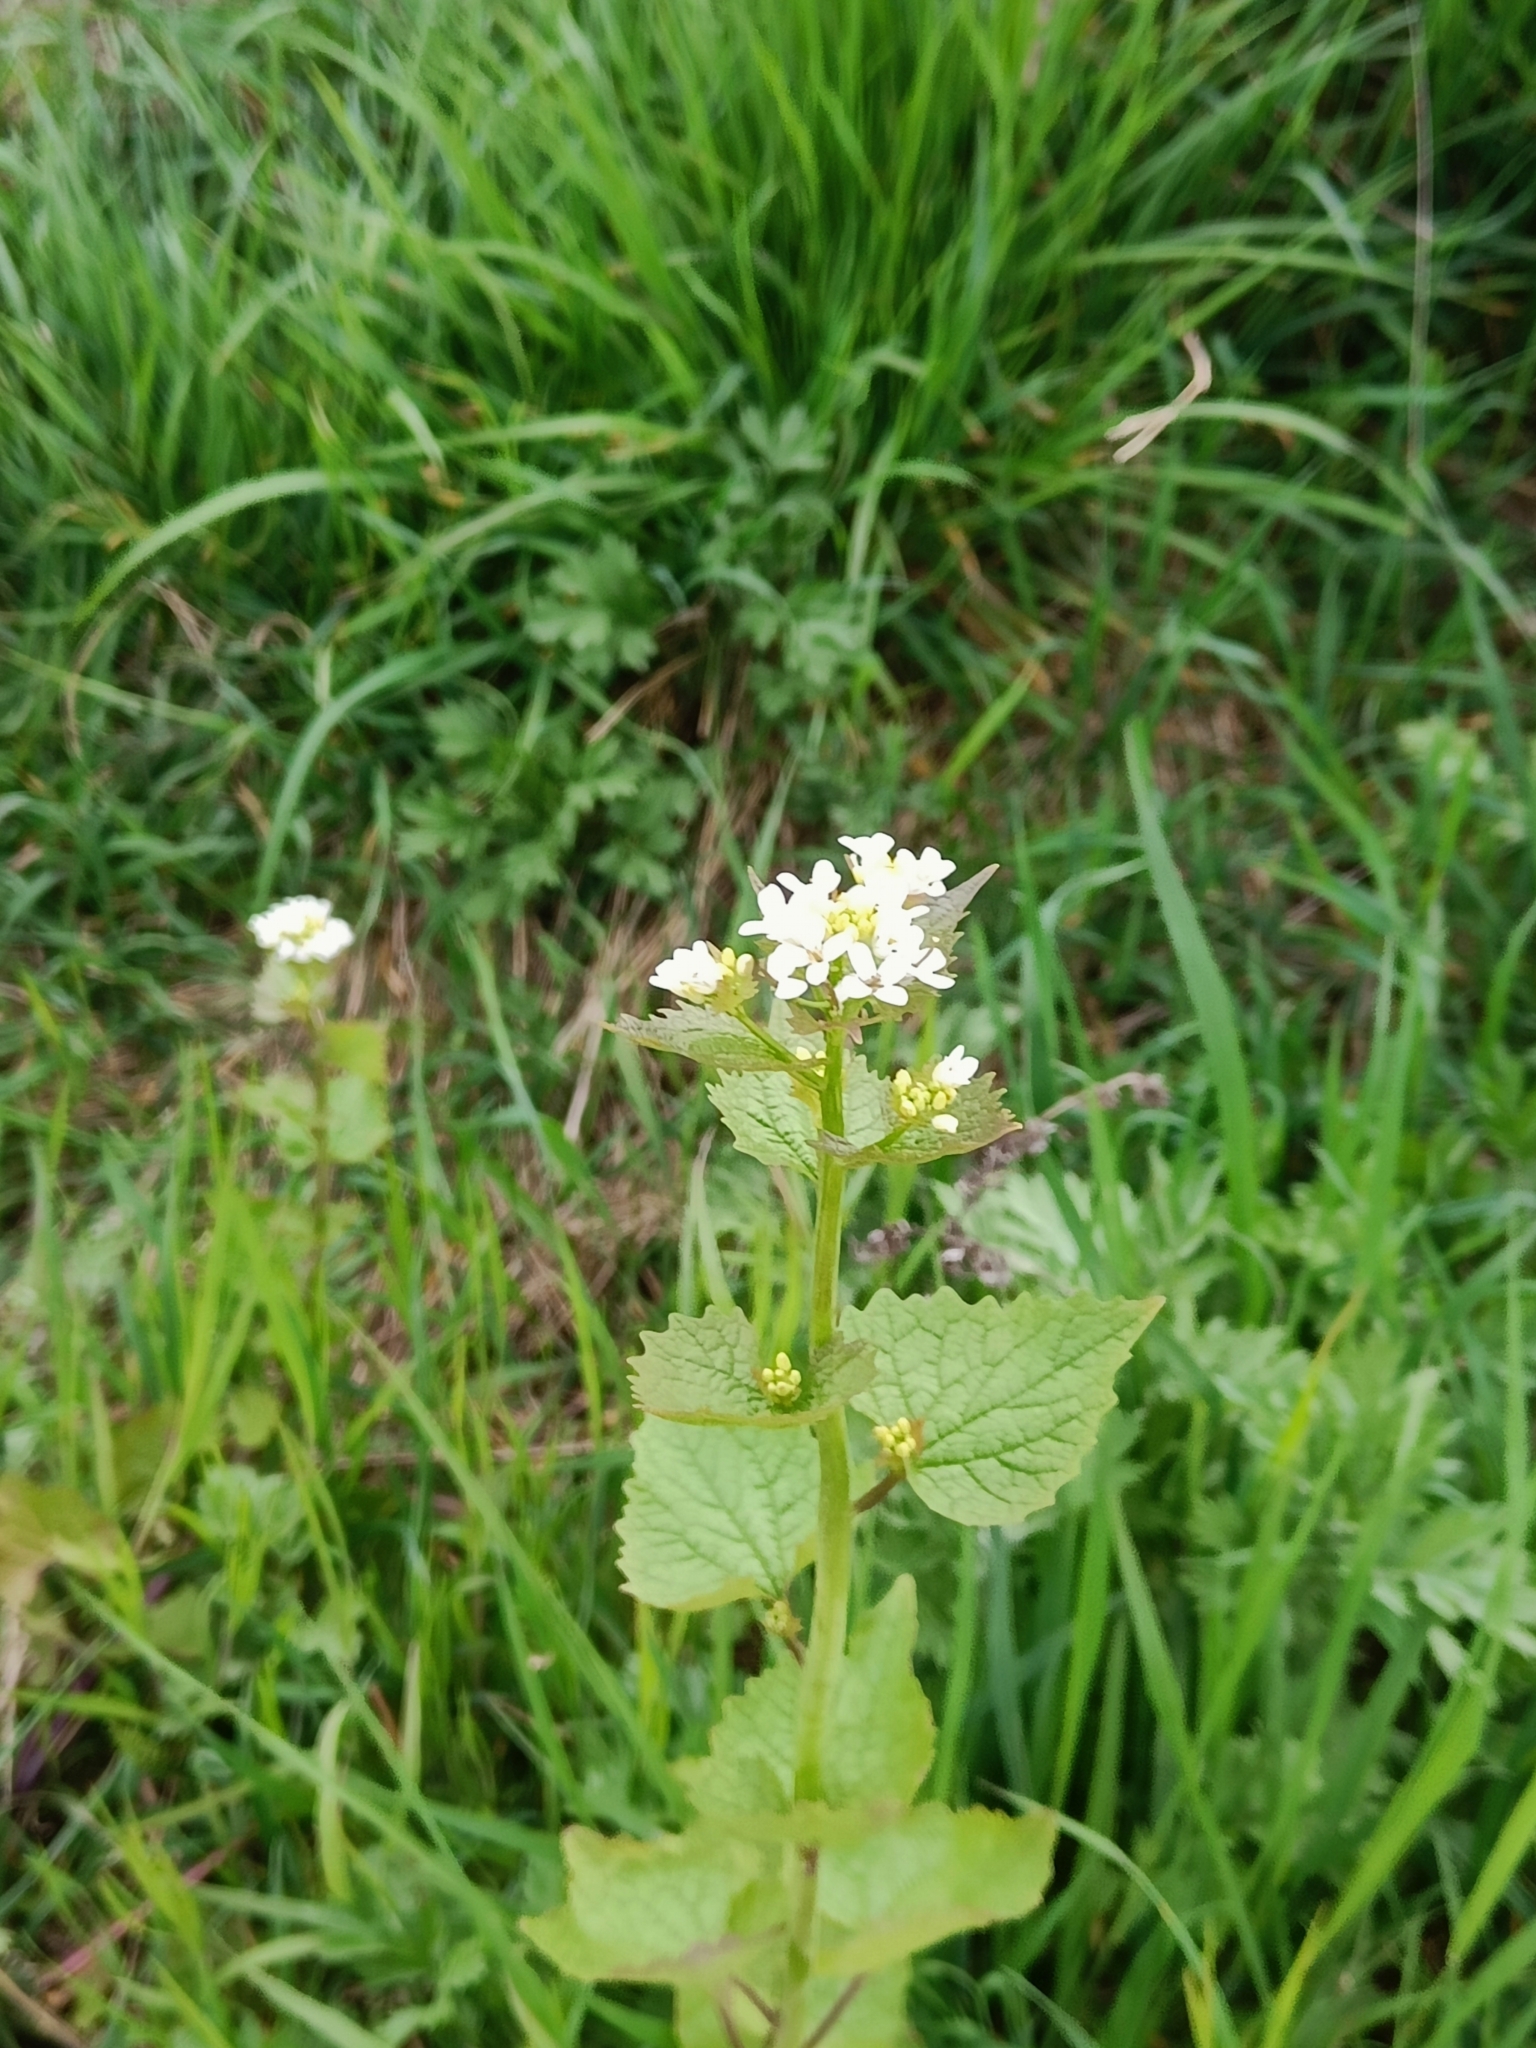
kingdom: Plantae
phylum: Tracheophyta
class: Magnoliopsida
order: Brassicales
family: Brassicaceae
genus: Alliaria
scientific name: Alliaria petiolata
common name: Garlic mustard
